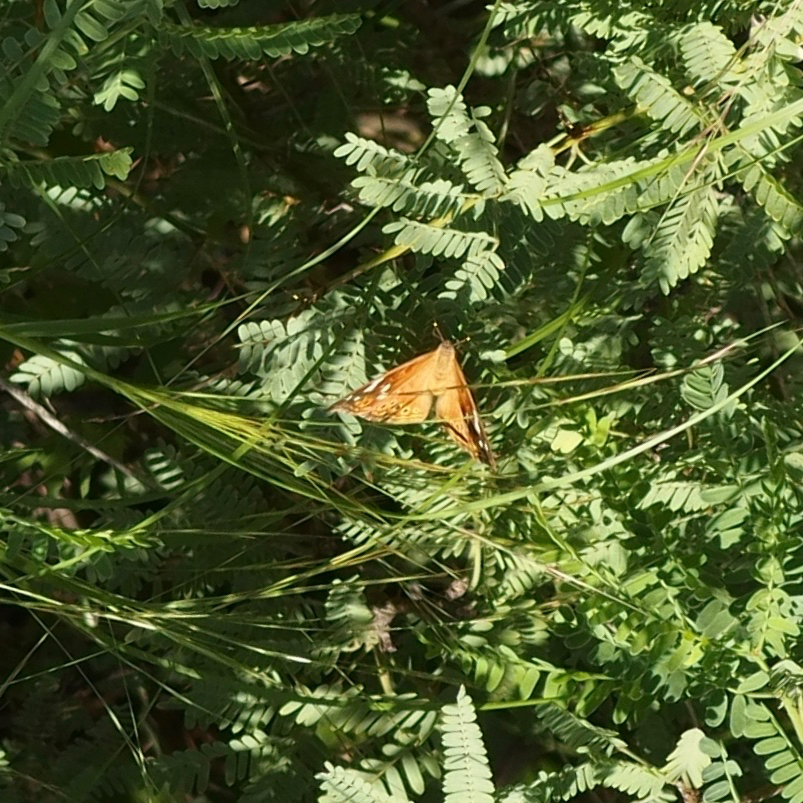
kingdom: Animalia
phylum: Arthropoda
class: Insecta
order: Lepidoptera
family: Nymphalidae
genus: Asterocampa
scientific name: Asterocampa leilia
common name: Empress leilia
